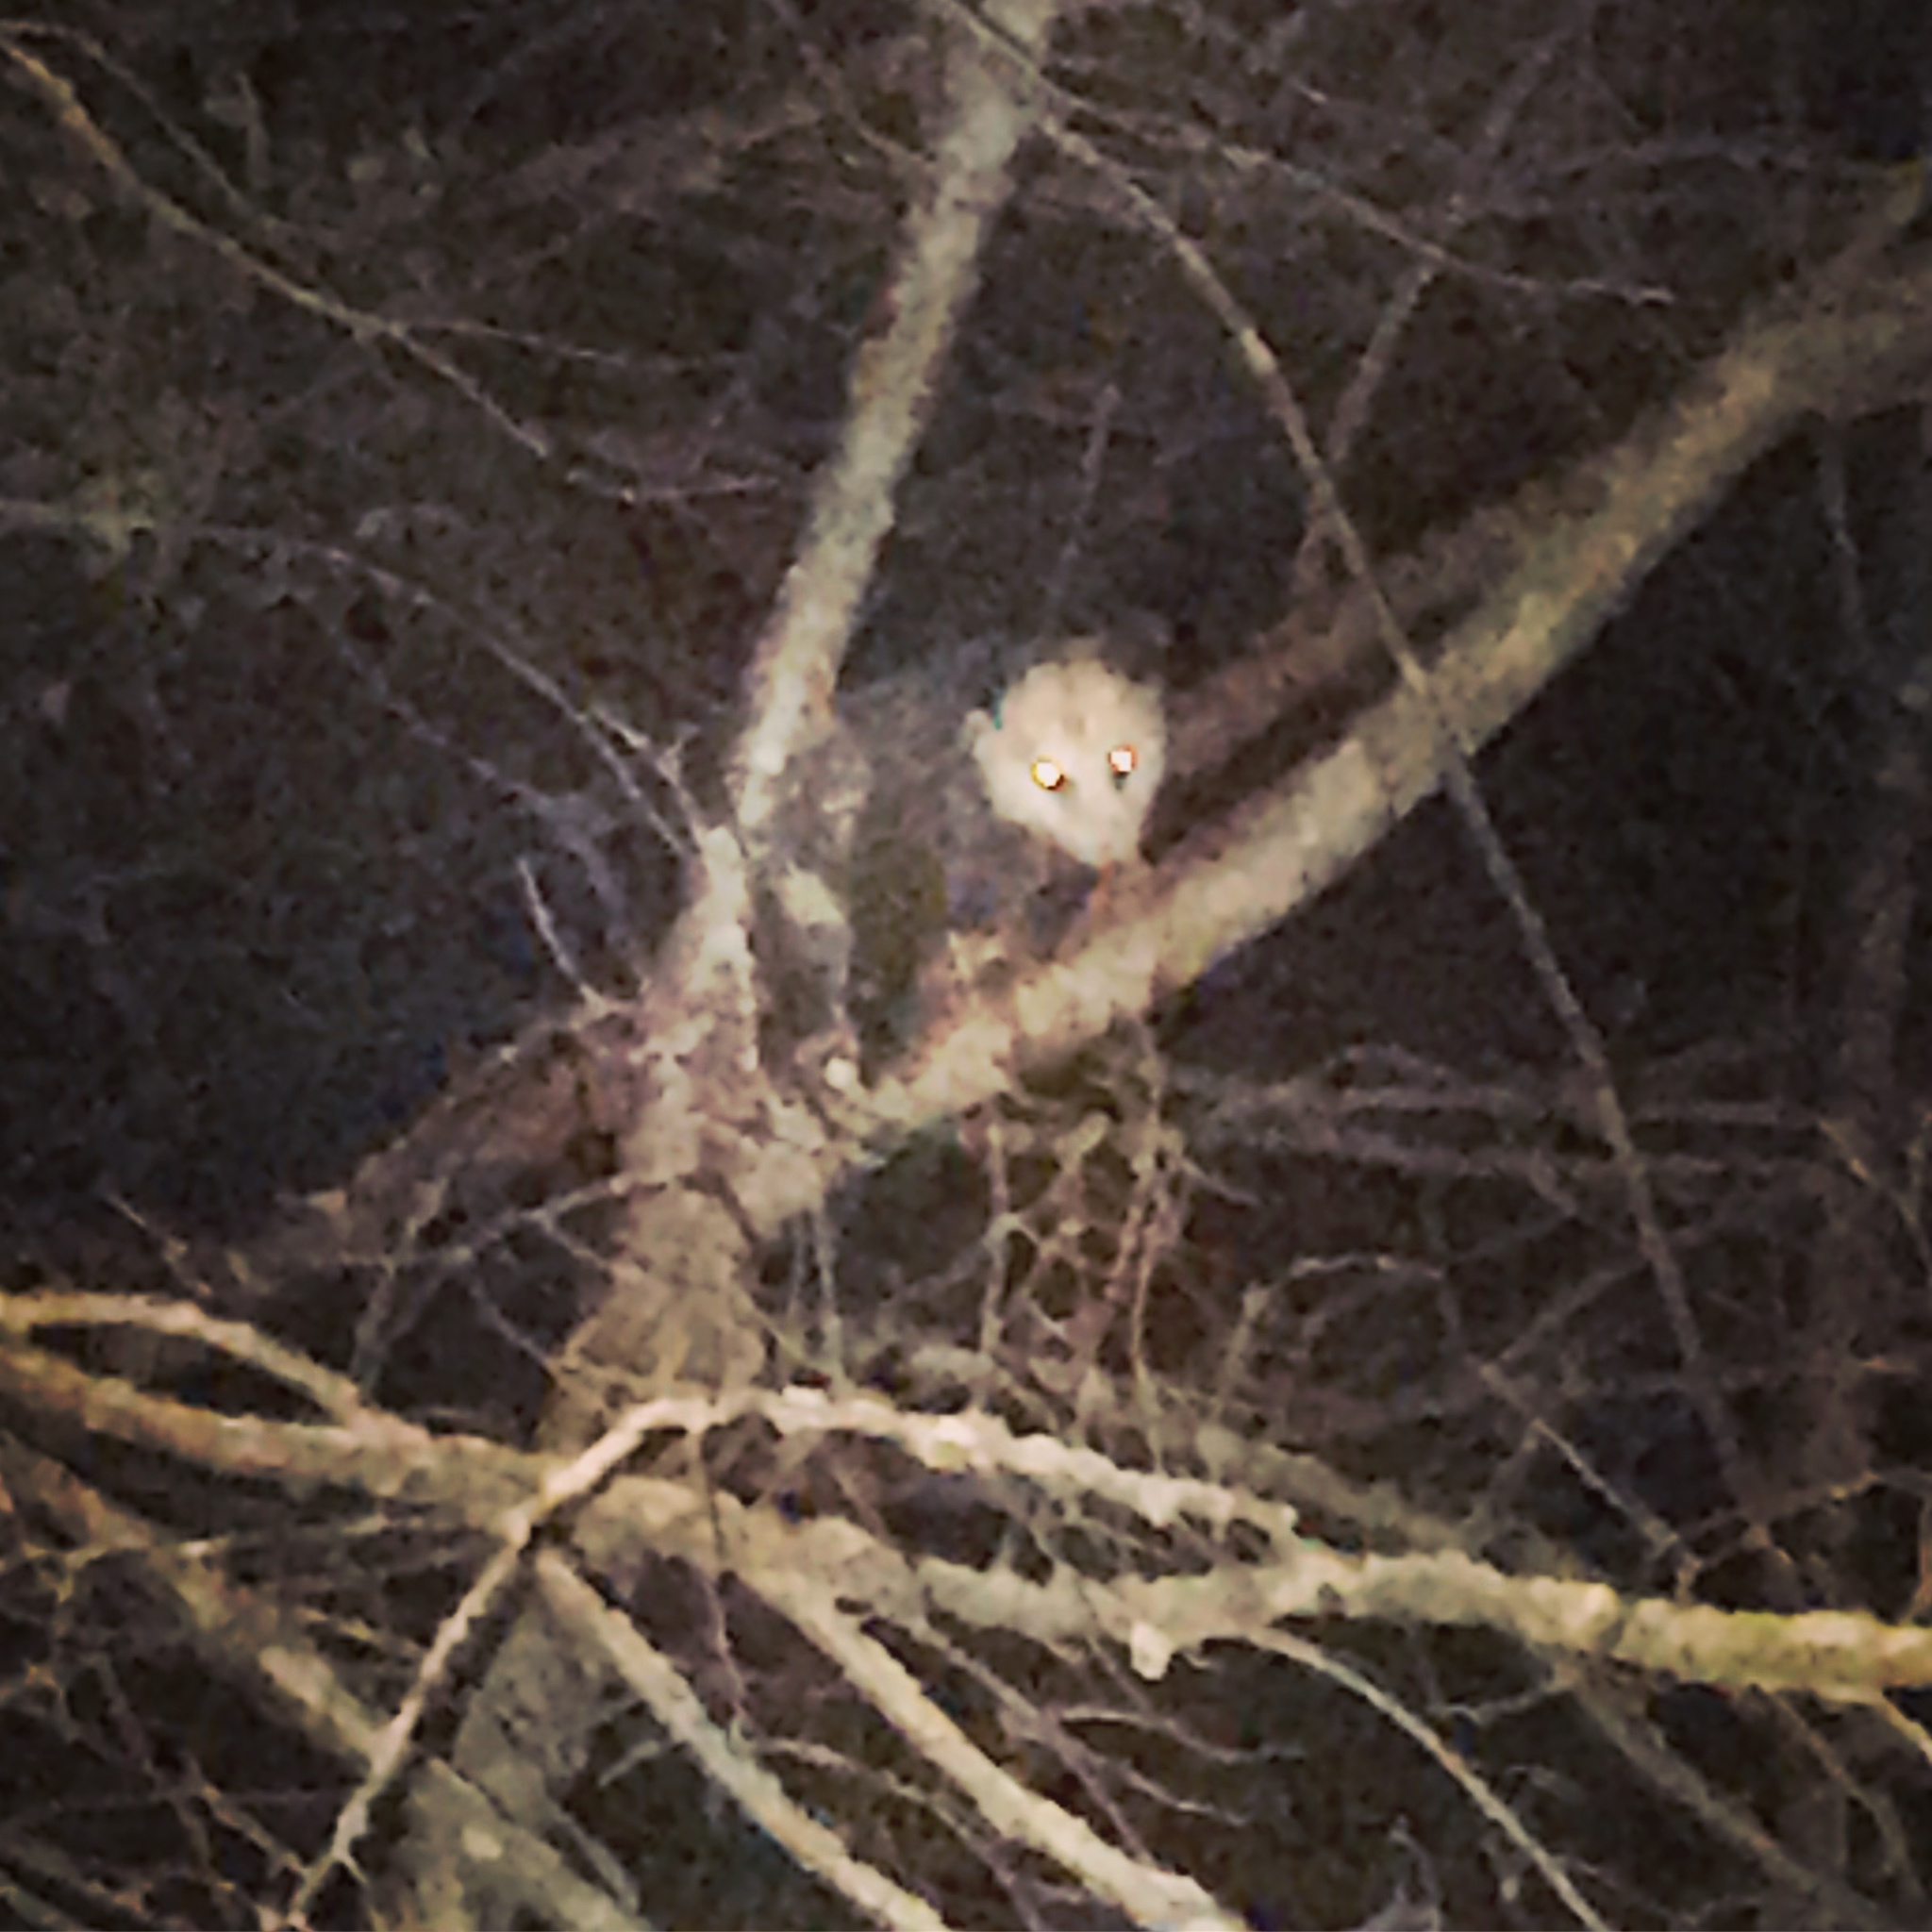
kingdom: Animalia
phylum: Chordata
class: Mammalia
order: Didelphimorphia
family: Didelphidae
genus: Didelphis
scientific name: Didelphis virginiana
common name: Virginia opossum
